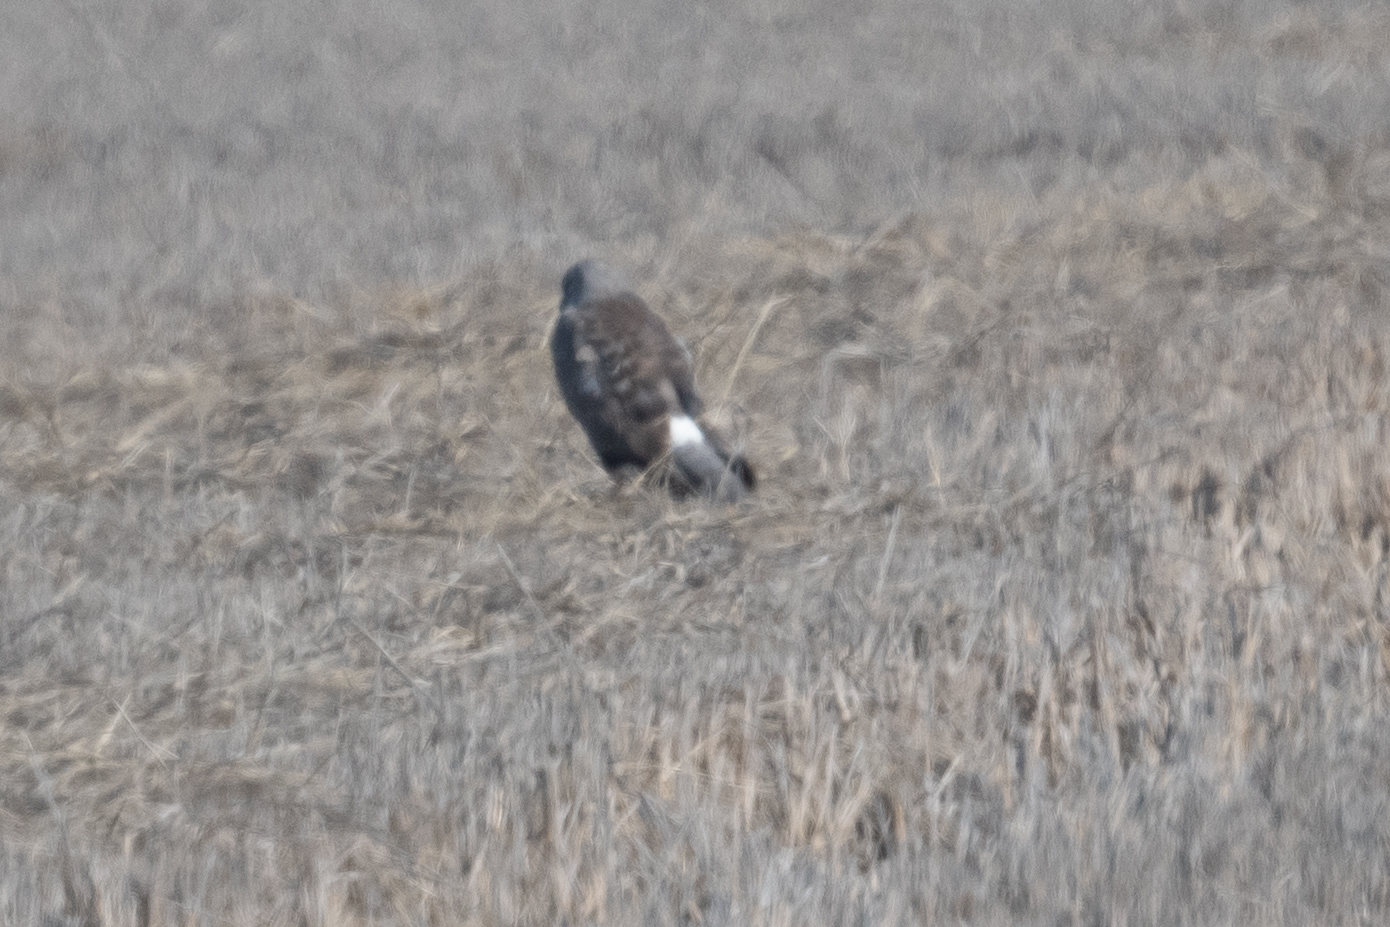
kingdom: Animalia
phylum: Chordata
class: Aves
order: Accipitriformes
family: Accipitridae
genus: Circus
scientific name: Circus cyaneus
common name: Hen harrier
